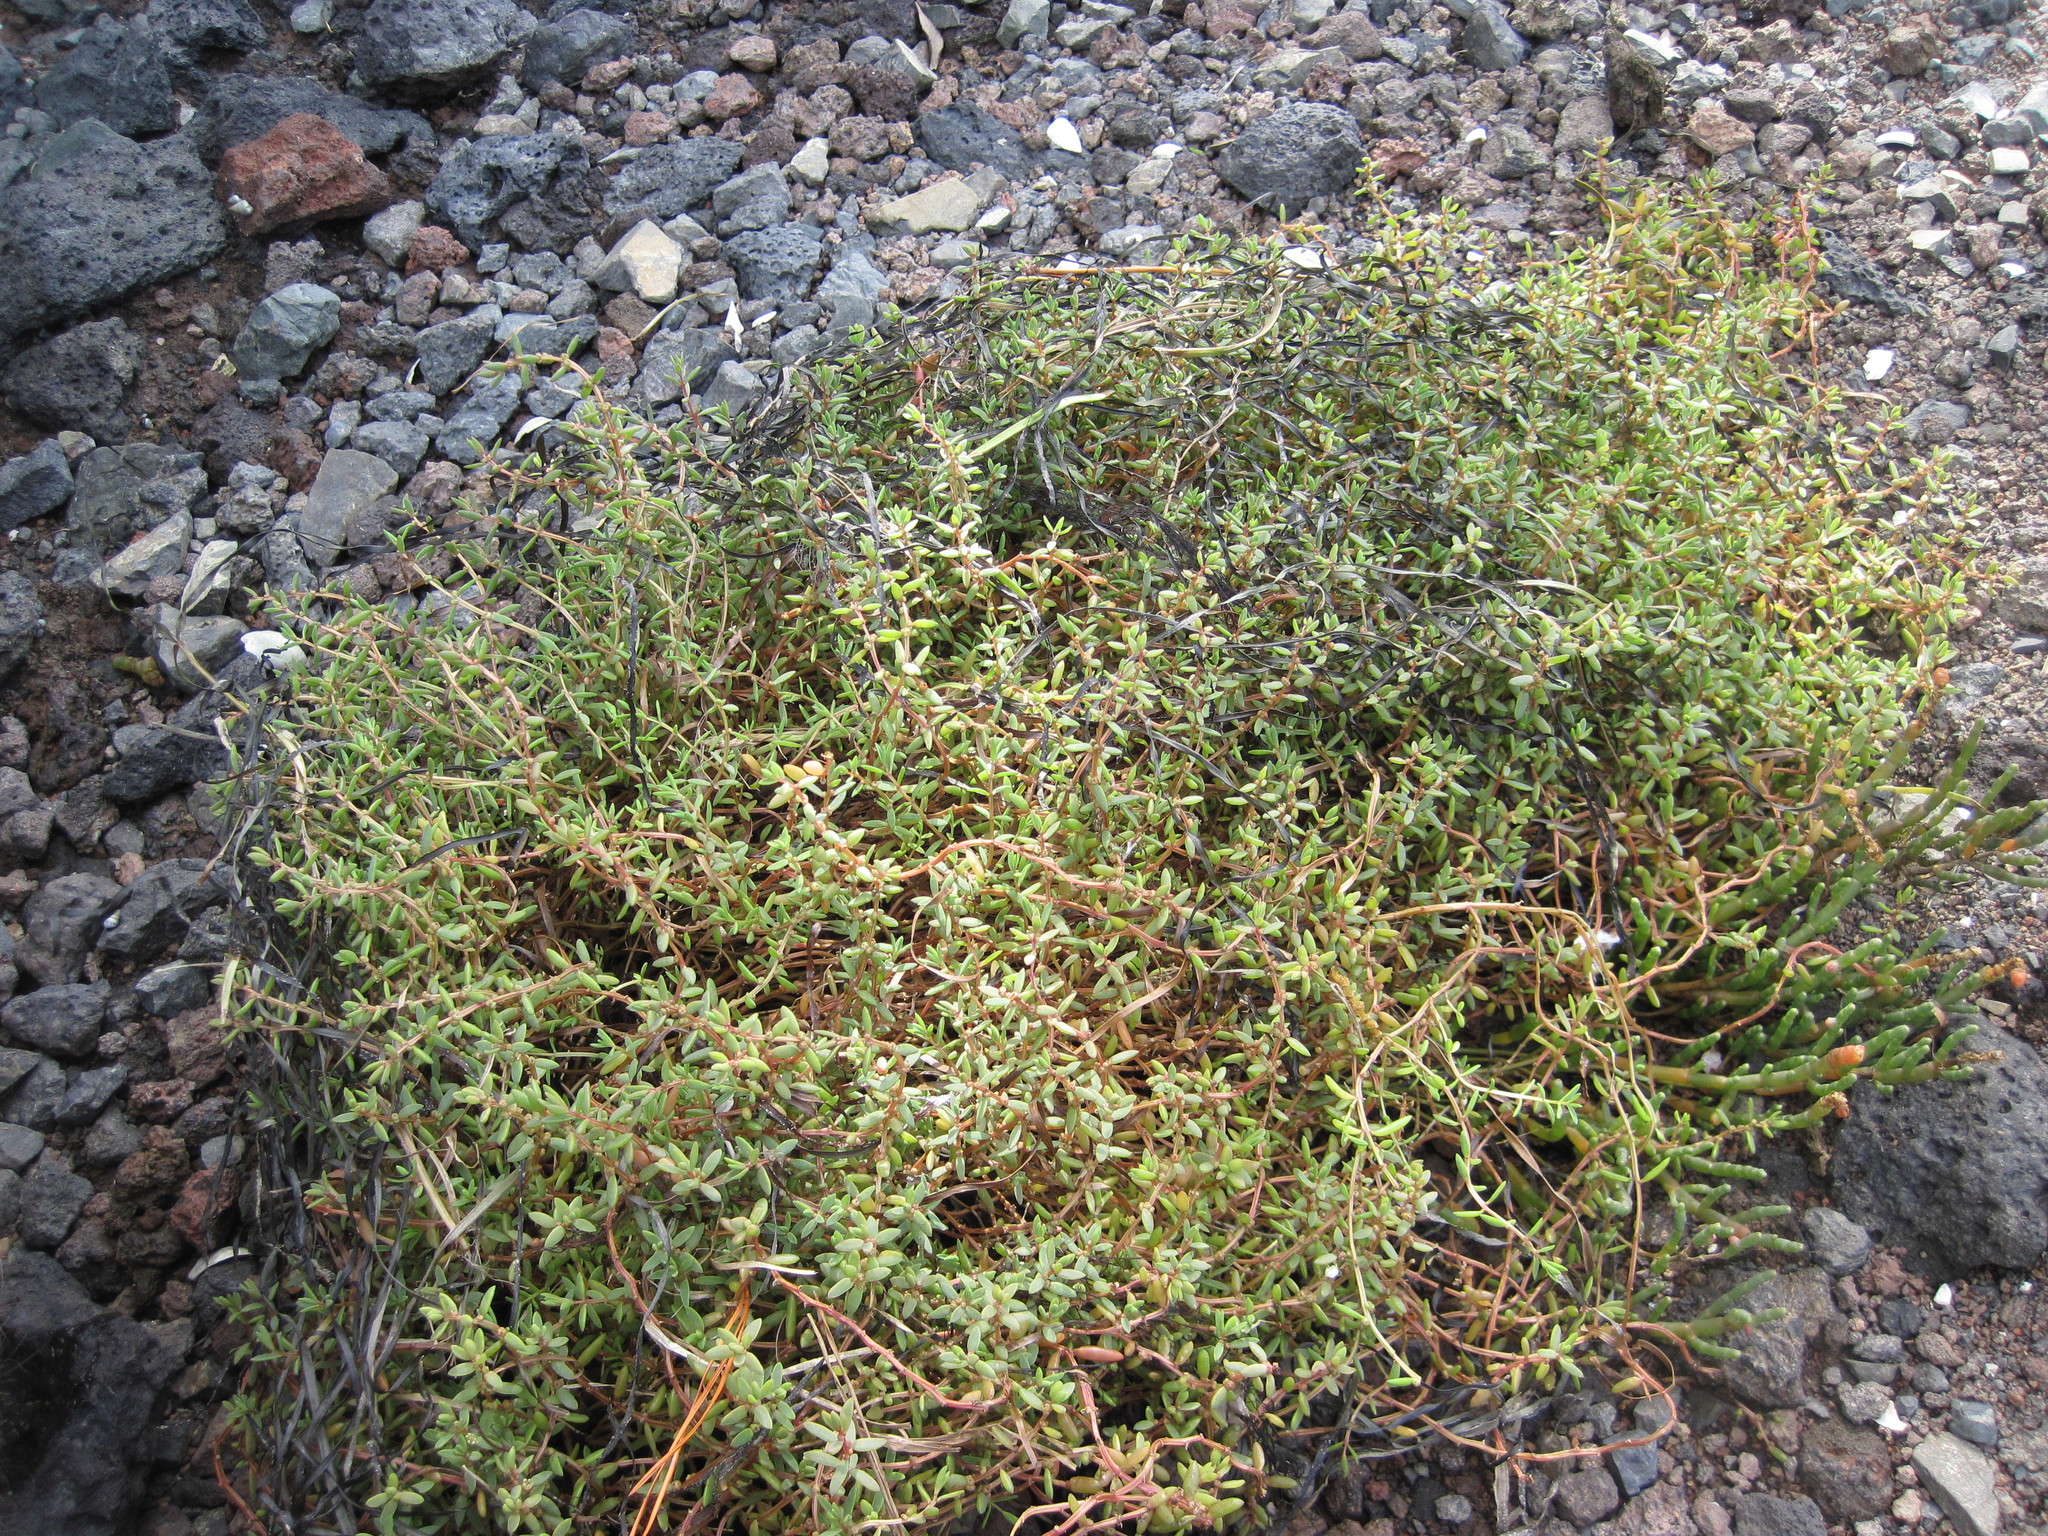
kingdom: Plantae
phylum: Tracheophyta
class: Magnoliopsida
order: Caryophyllales
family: Amaranthaceae
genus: Suaeda
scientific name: Suaeda novae-zelandiae
